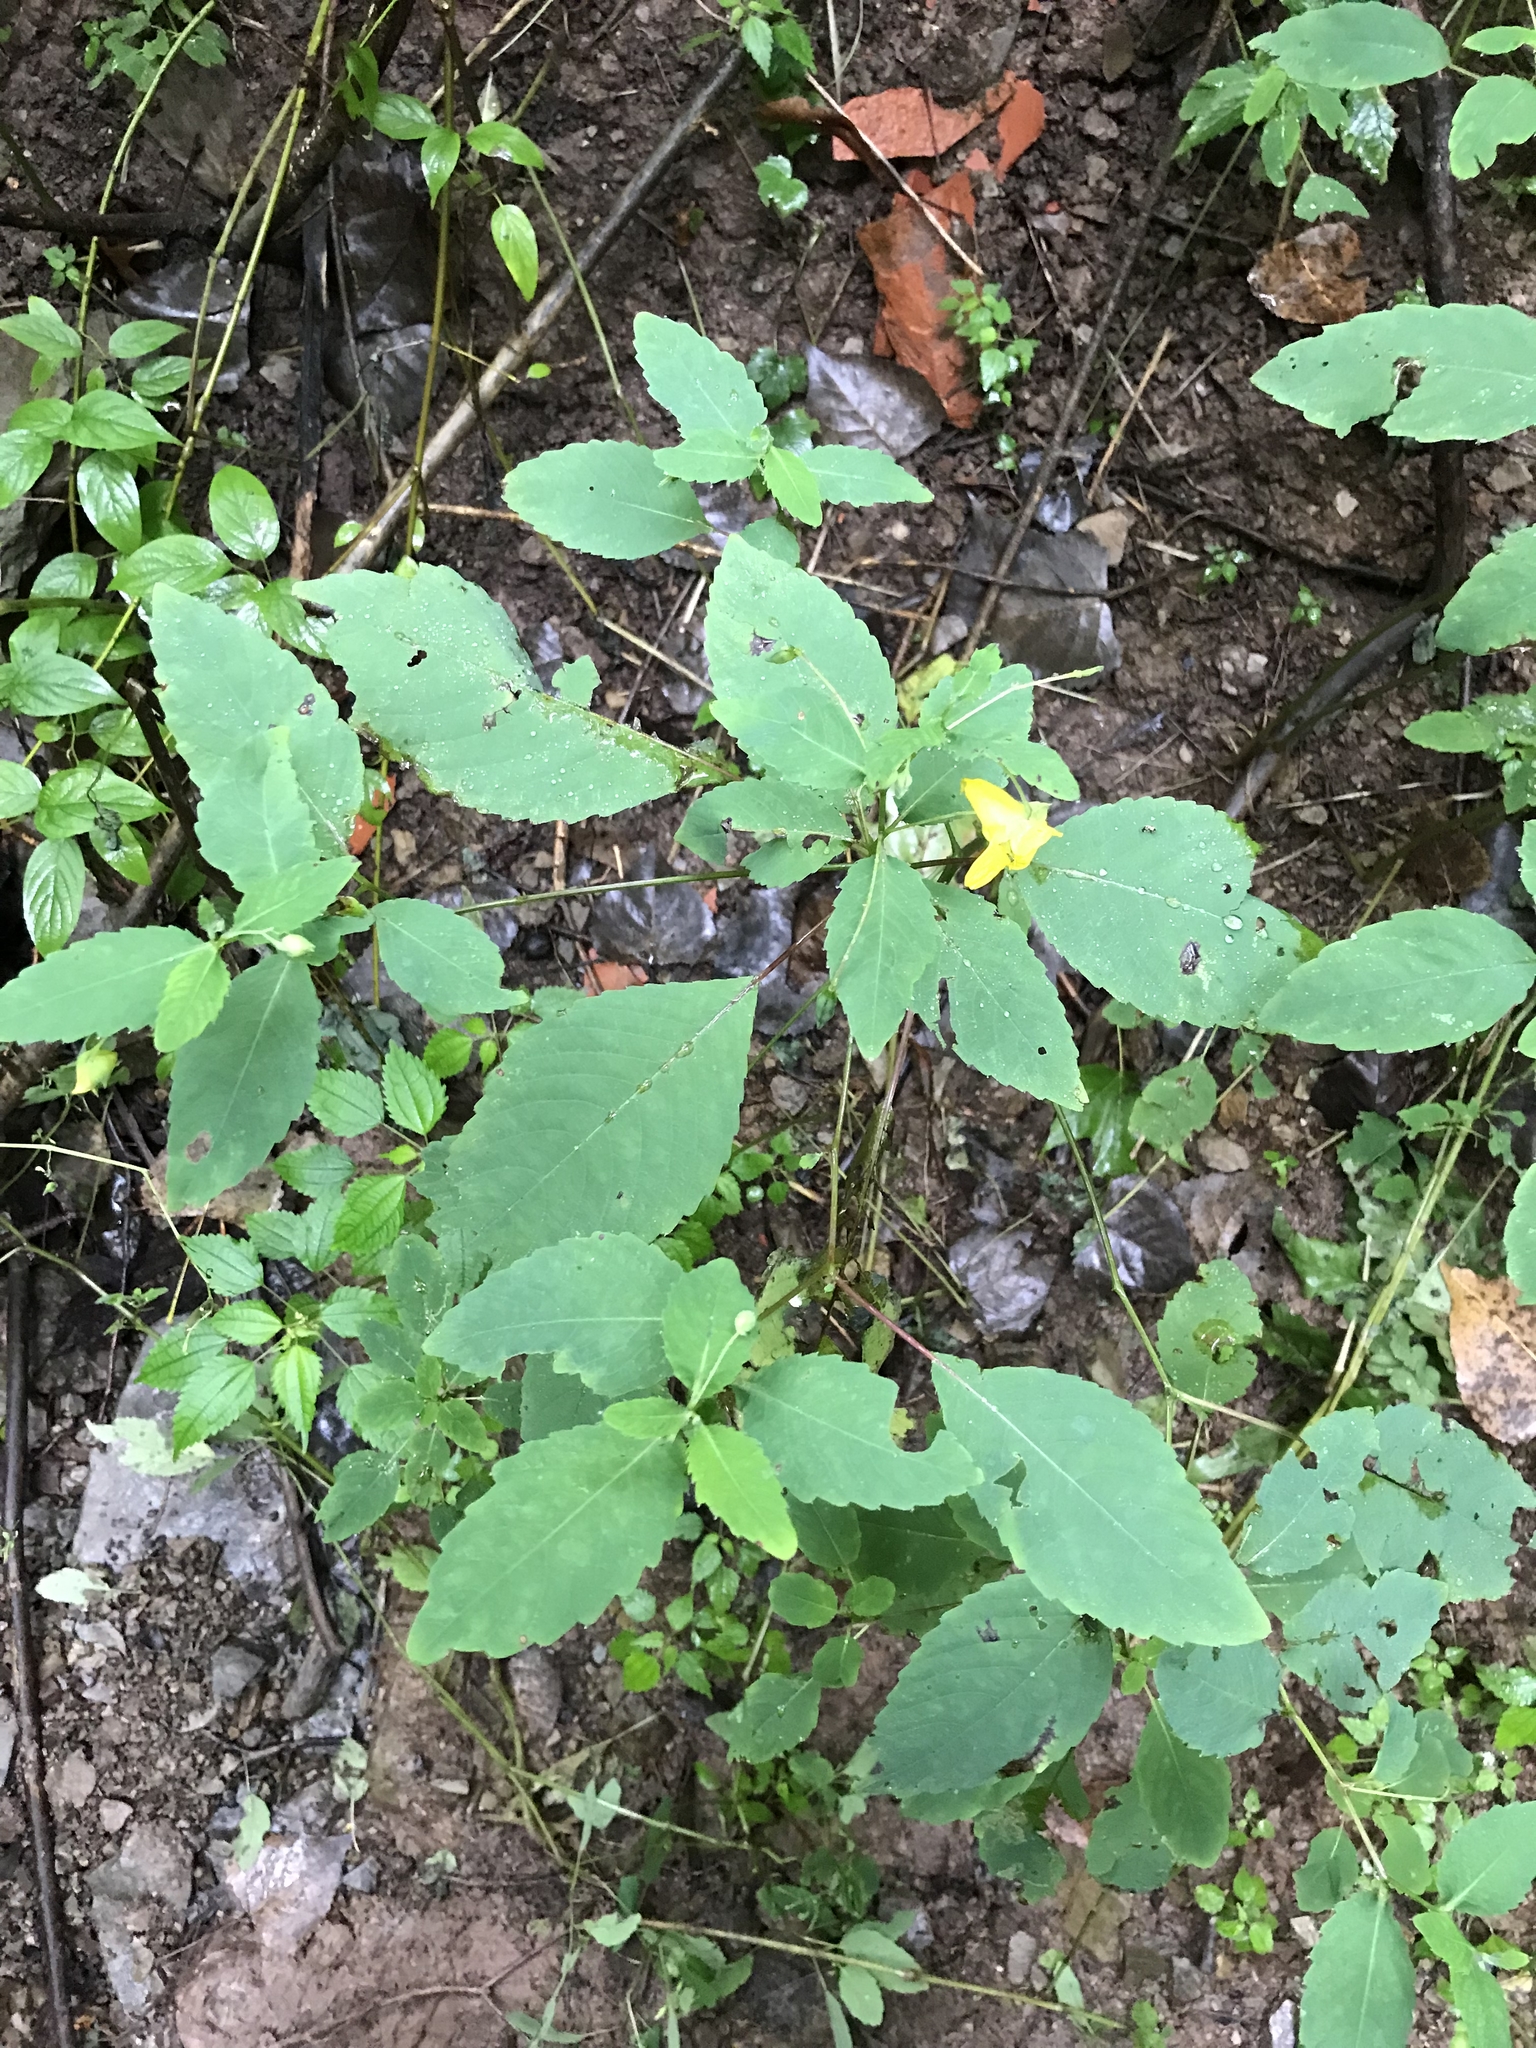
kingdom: Plantae
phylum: Tracheophyta
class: Magnoliopsida
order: Ericales
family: Balsaminaceae
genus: Impatiens
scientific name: Impatiens pallida
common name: Pale snapweed
